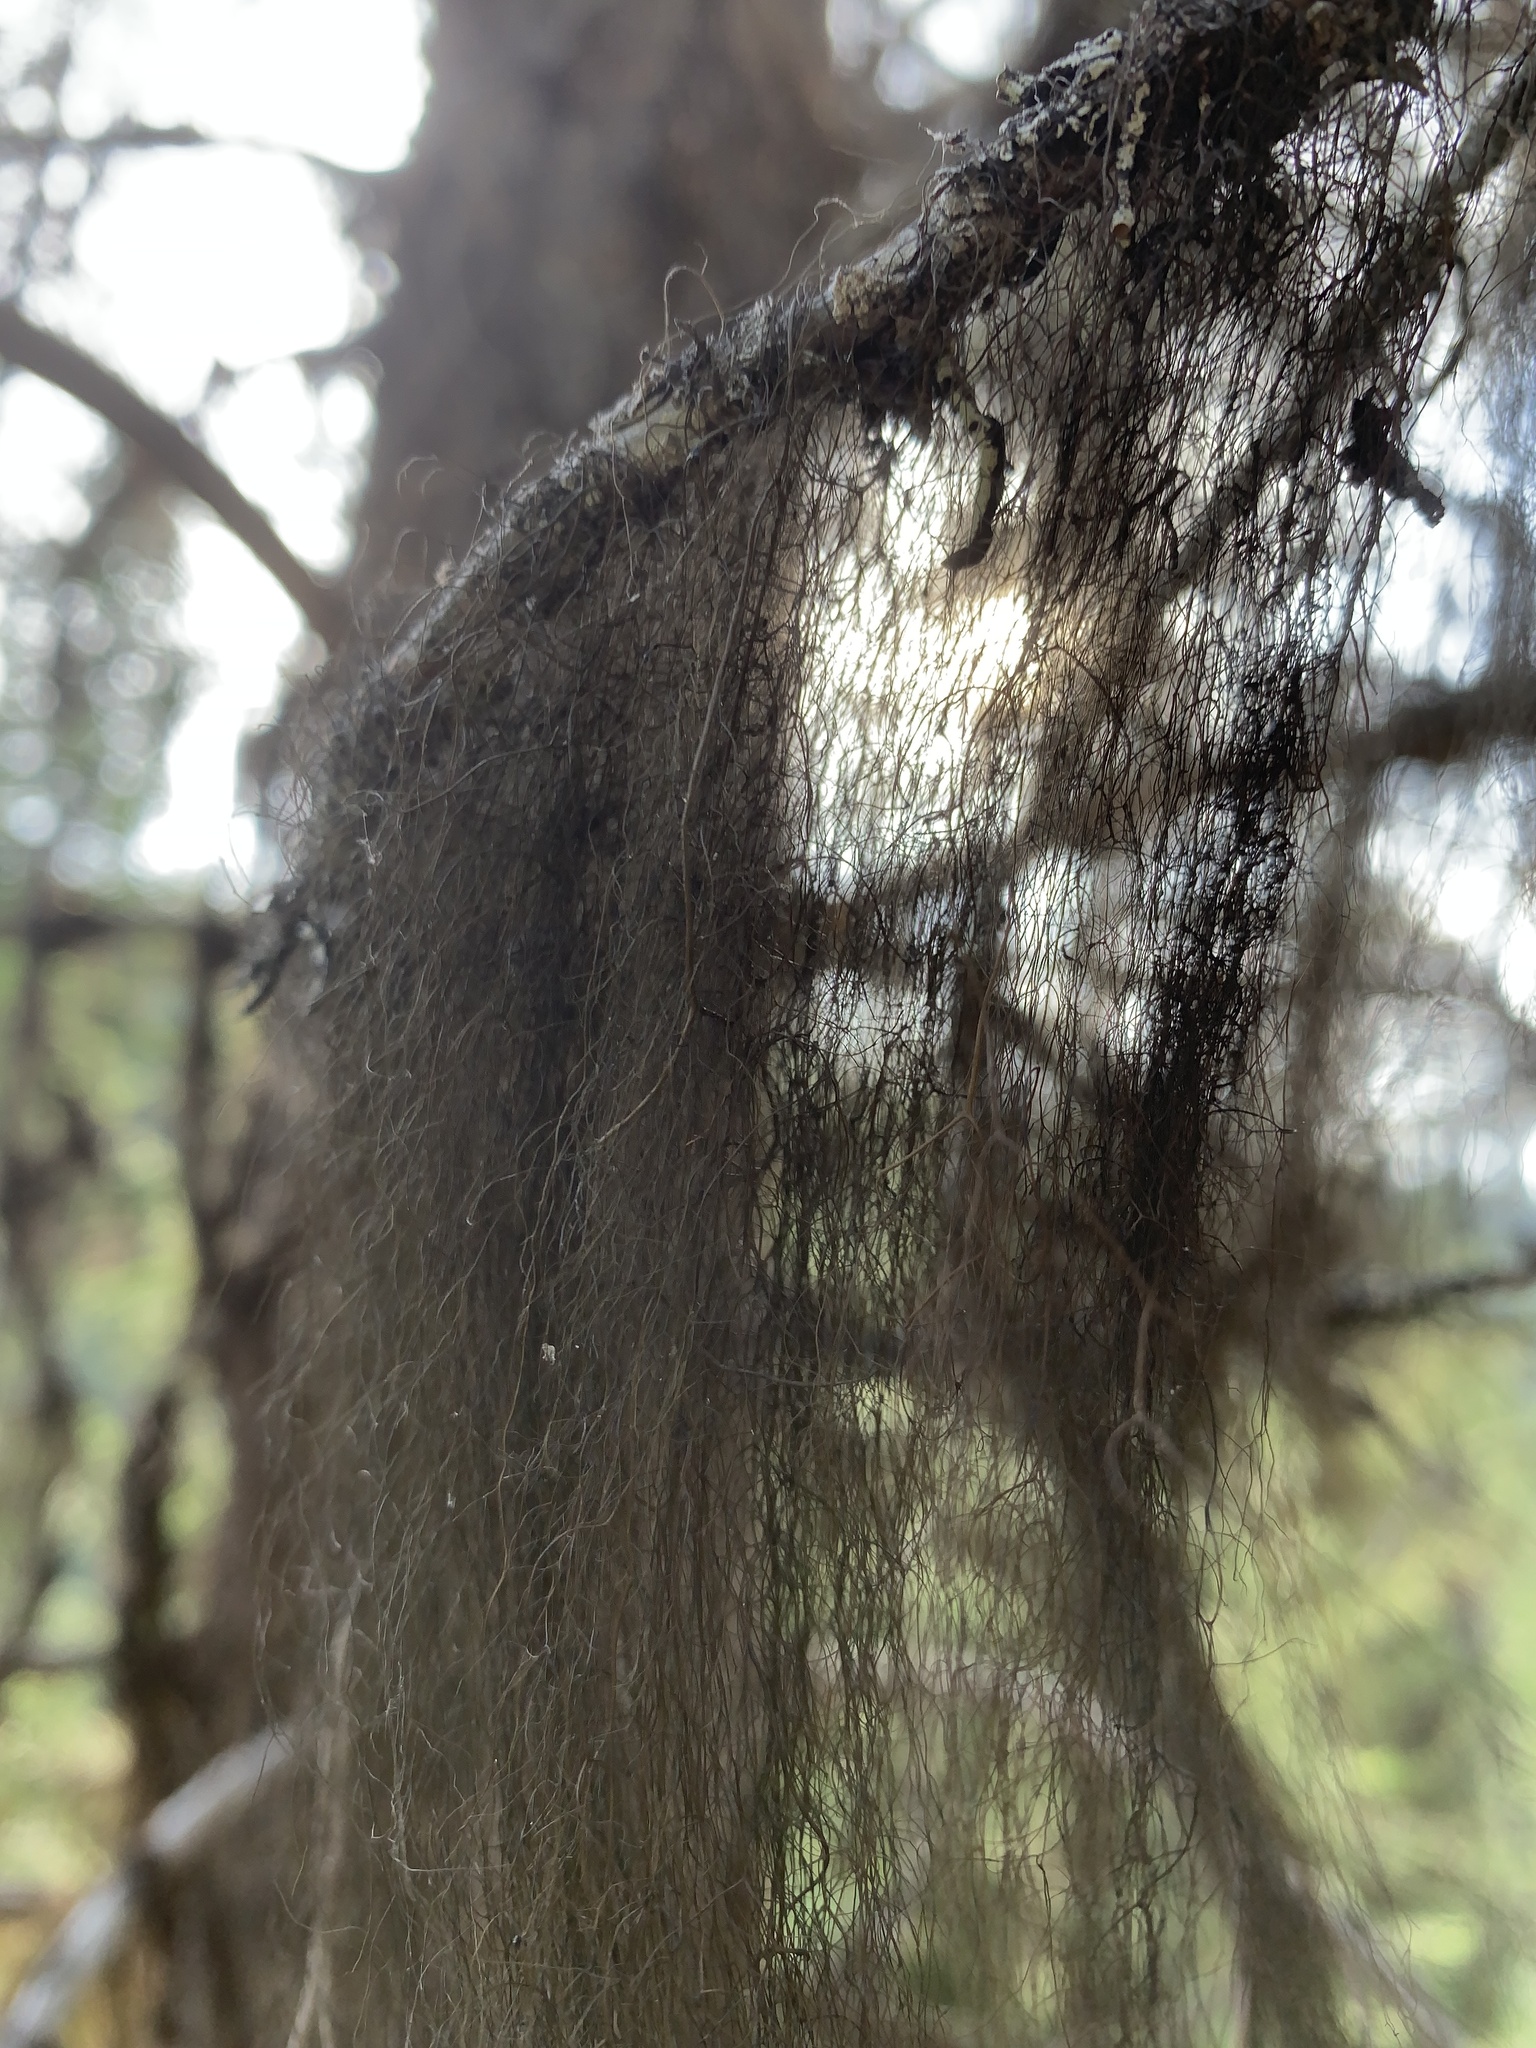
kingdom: Fungi
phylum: Ascomycota
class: Lecanoromycetes
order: Lecanorales
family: Parmeliaceae
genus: Bryoria
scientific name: Bryoria fremontii
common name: Black moss
